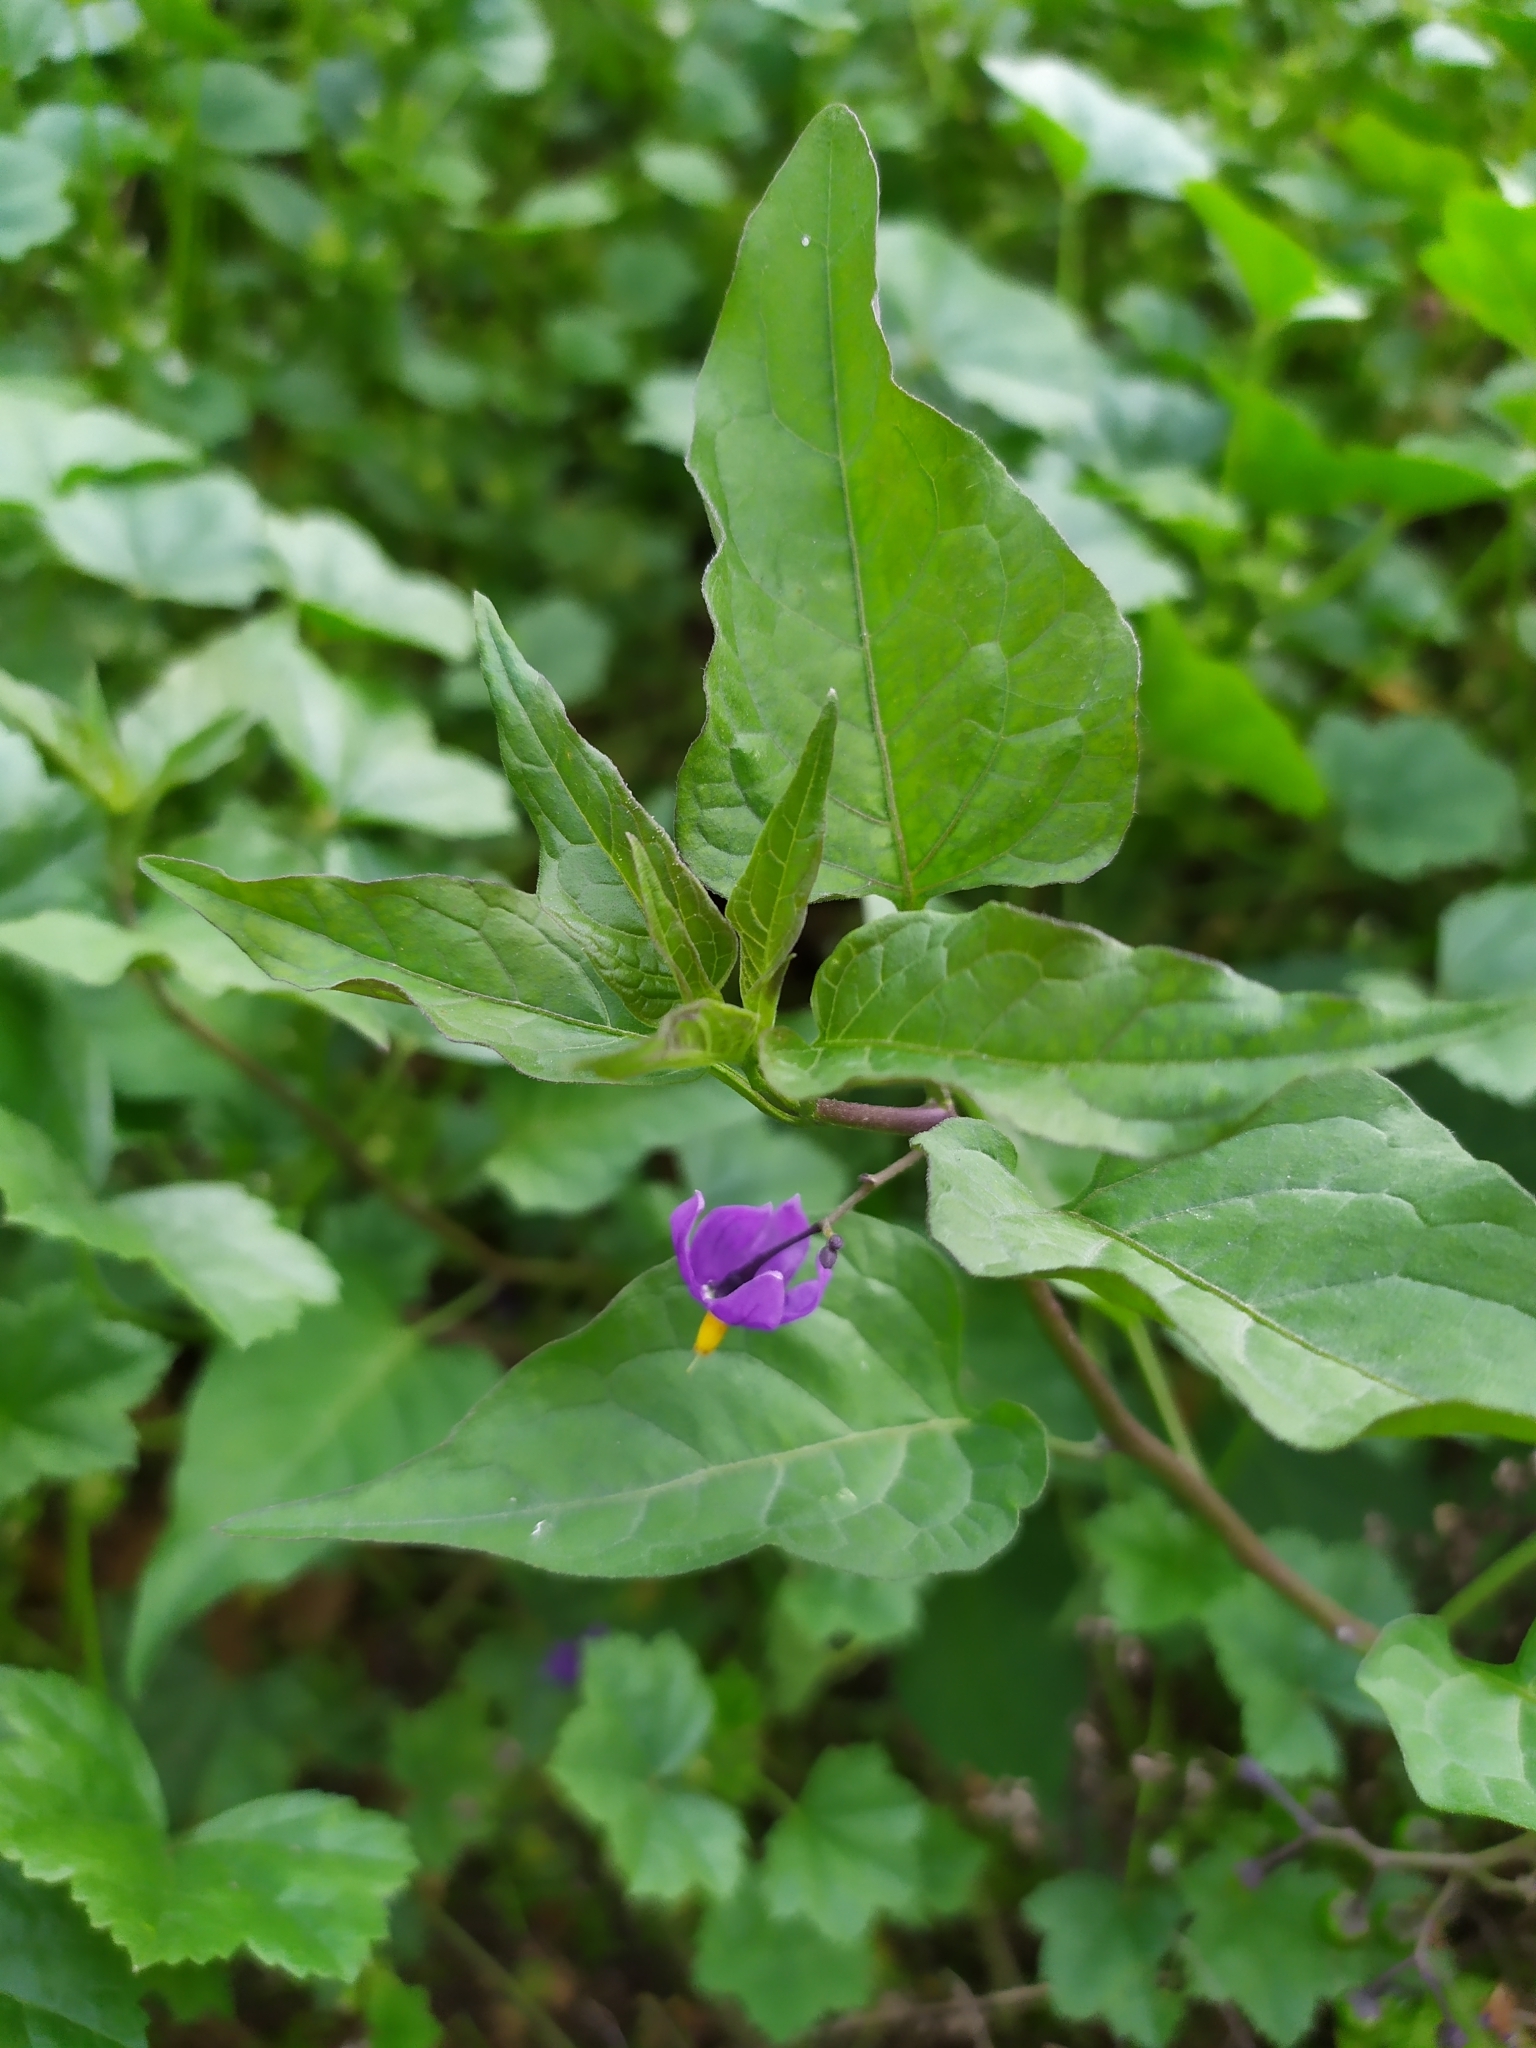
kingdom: Plantae
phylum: Tracheophyta
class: Magnoliopsida
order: Solanales
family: Solanaceae
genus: Solanum
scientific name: Solanum dulcamara
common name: Climbing nightshade
